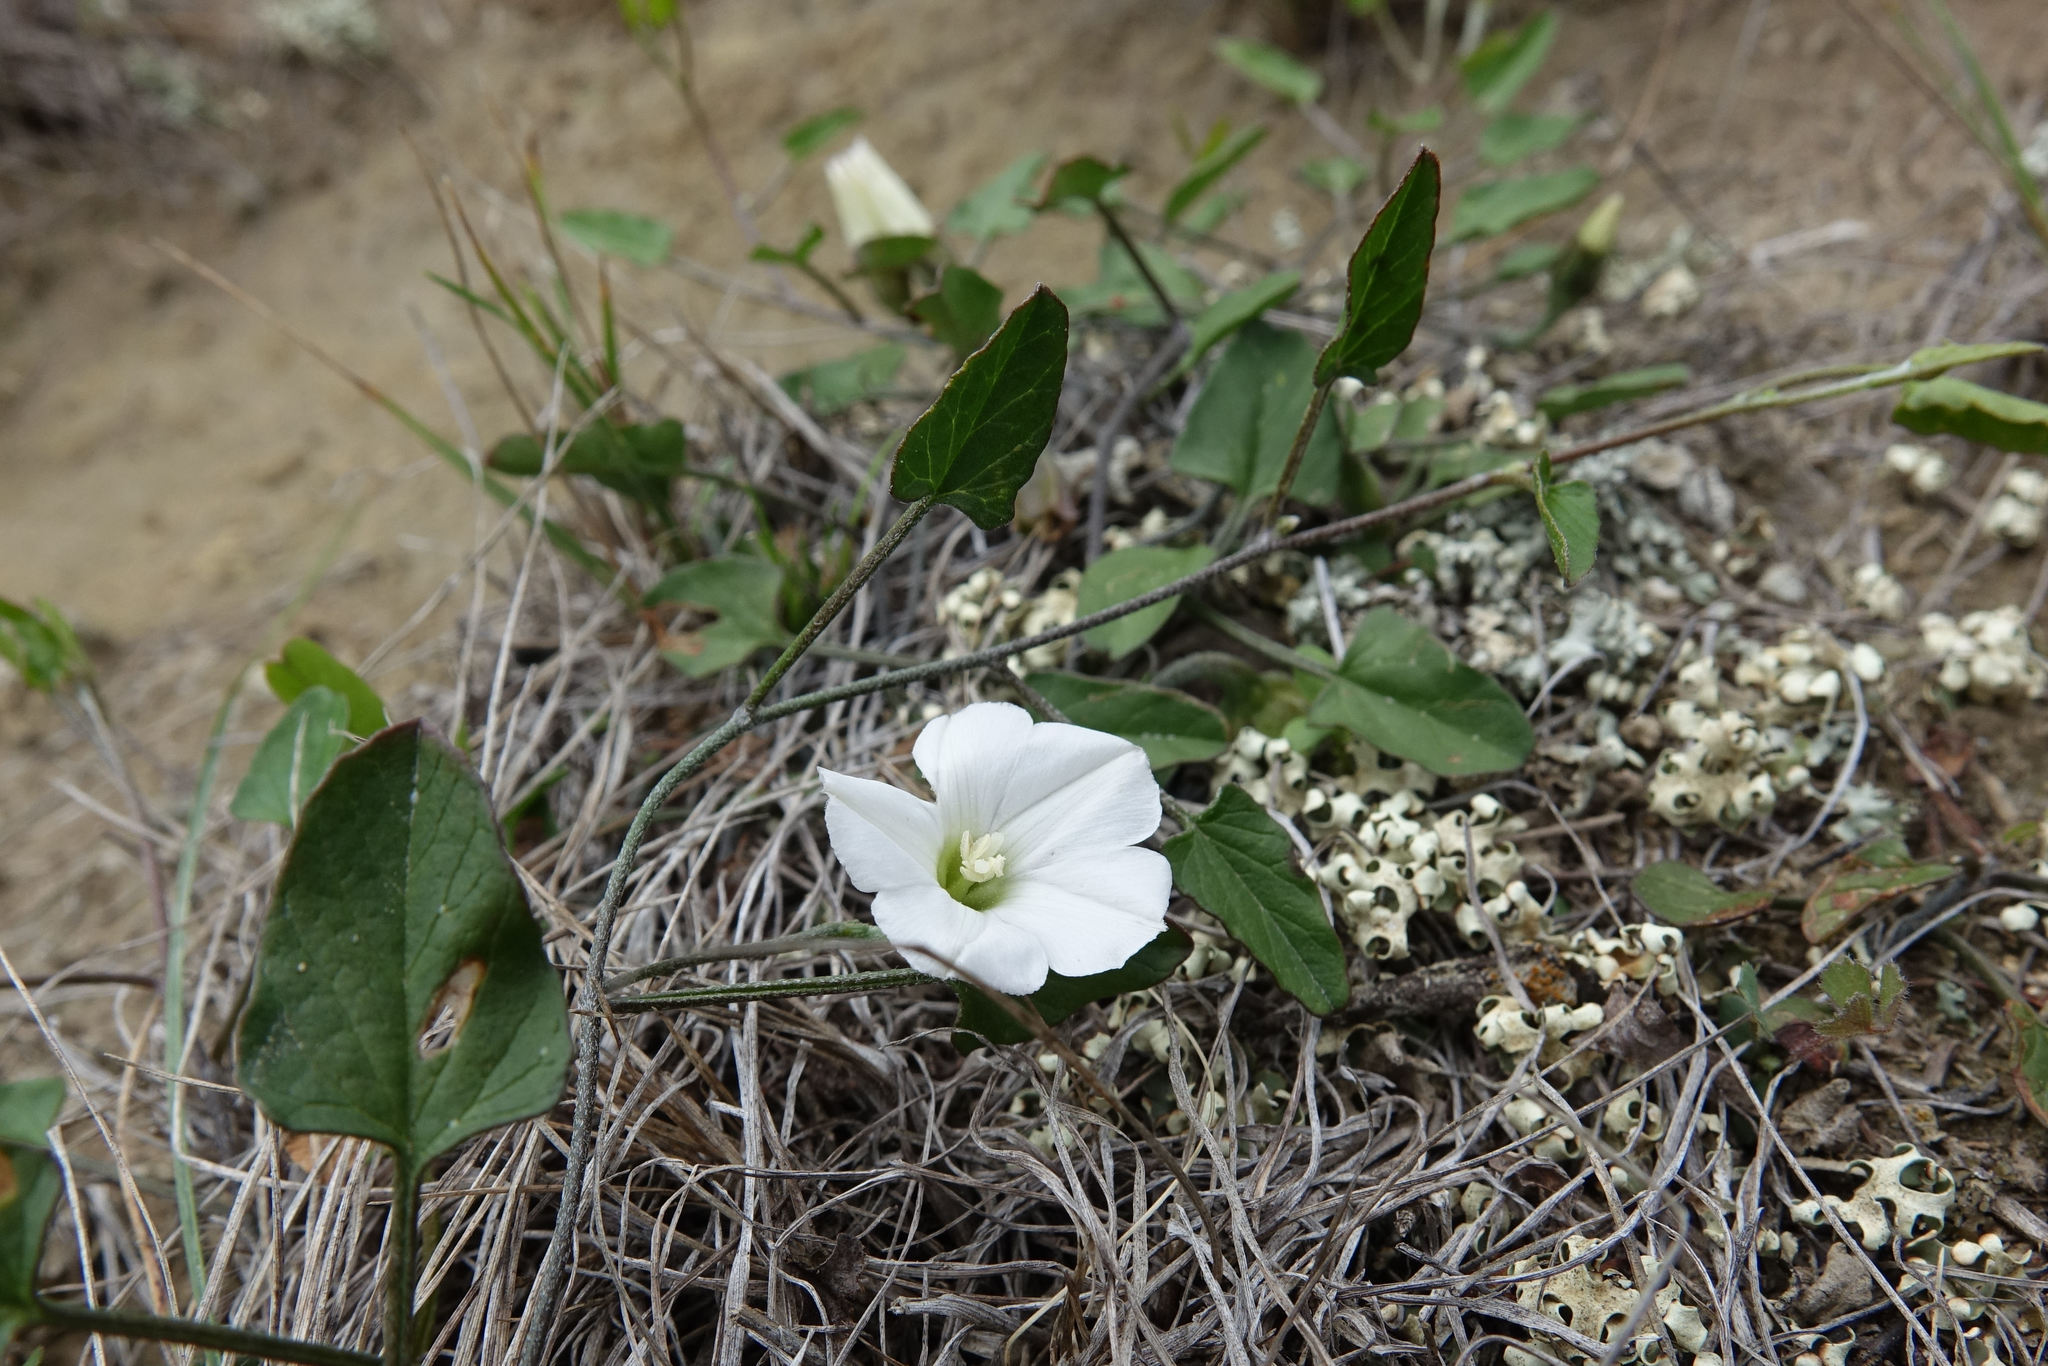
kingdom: Plantae
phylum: Tracheophyta
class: Magnoliopsida
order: Solanales
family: Convolvulaceae
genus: Convolvulus
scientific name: Convolvulus waitaha
